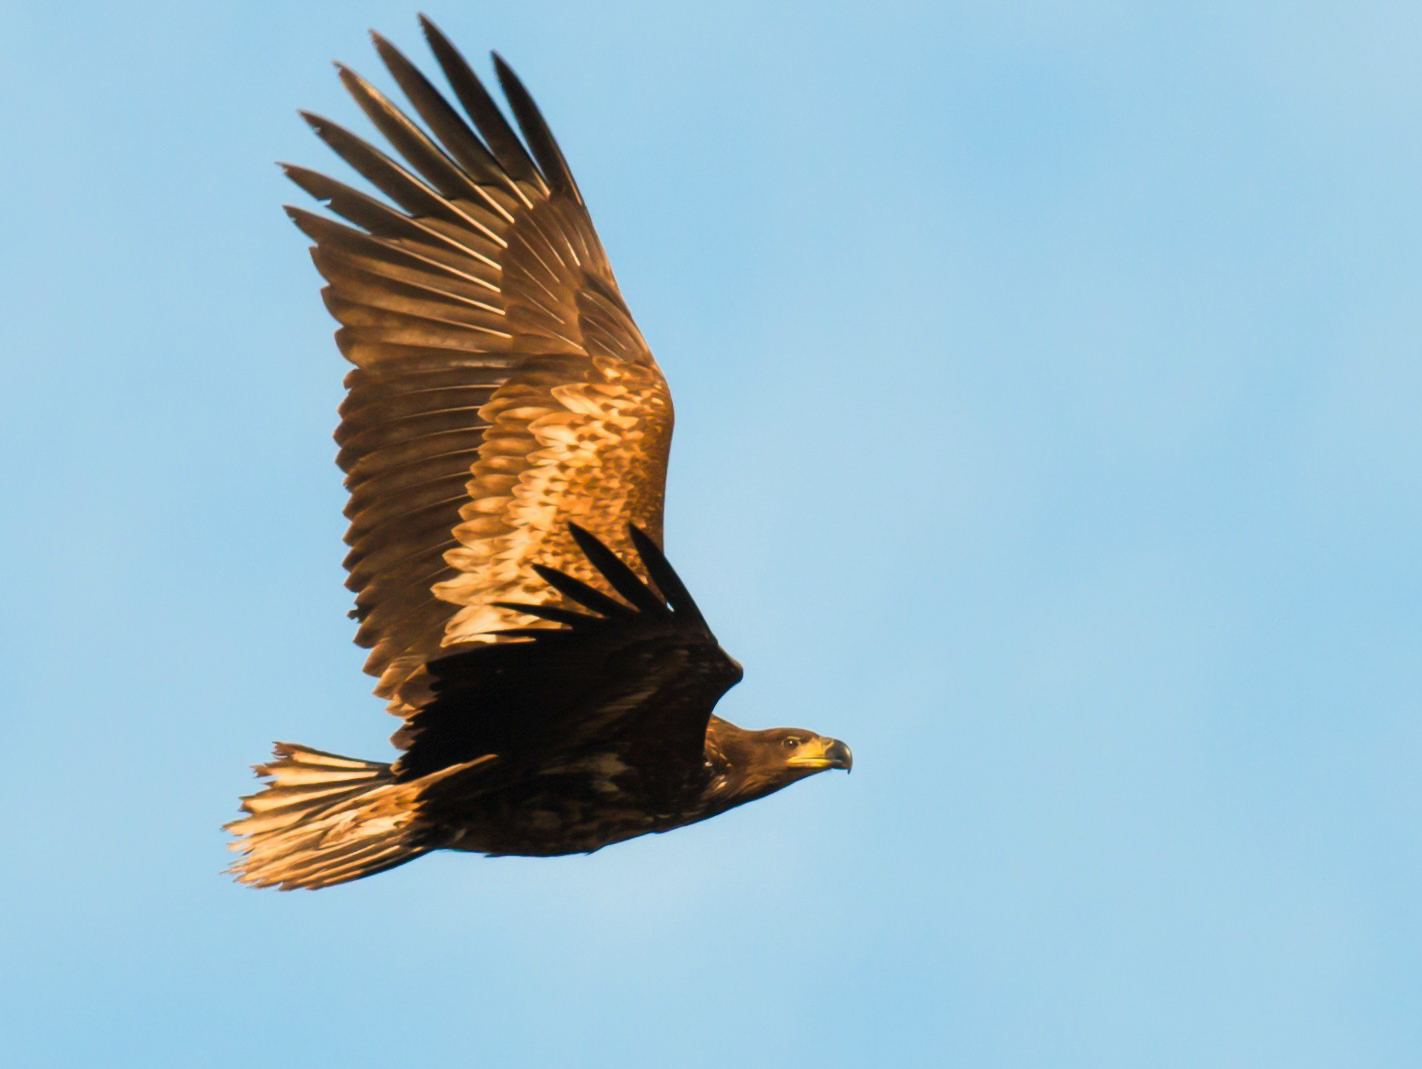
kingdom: Animalia
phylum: Chordata
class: Aves
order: Accipitriformes
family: Accipitridae
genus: Haliaeetus
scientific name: Haliaeetus albicilla
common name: White-tailed eagle
